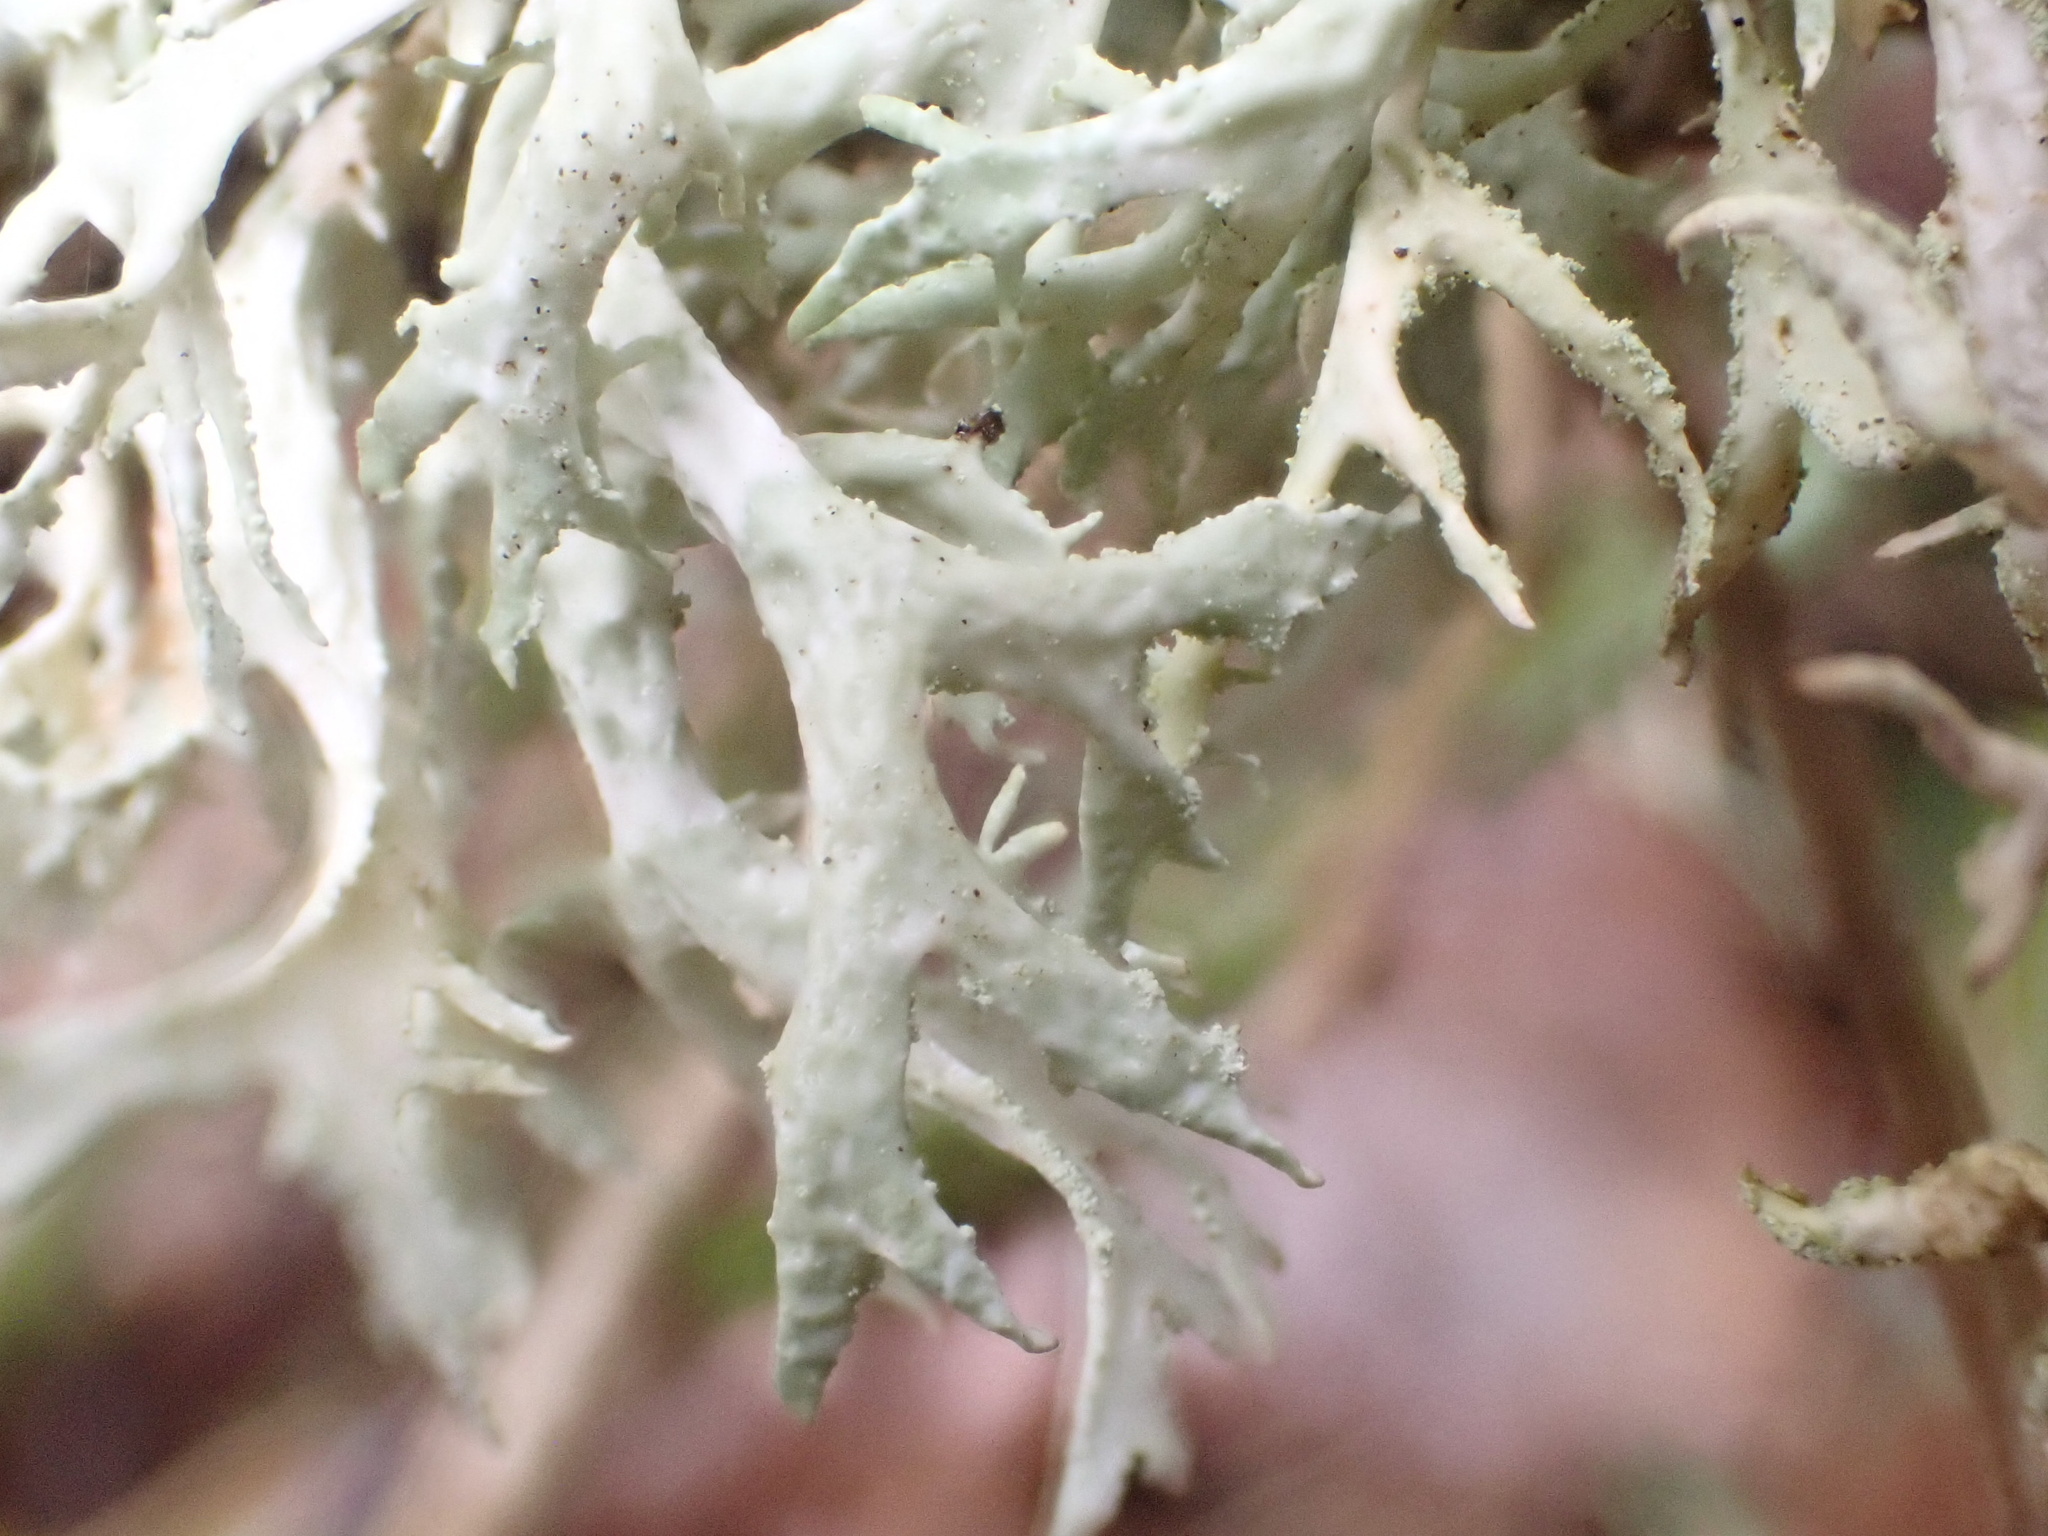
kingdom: Fungi
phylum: Ascomycota
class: Lecanoromycetes
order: Lecanorales
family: Parmeliaceae
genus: Evernia
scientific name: Evernia prunastri
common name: Oak moss
